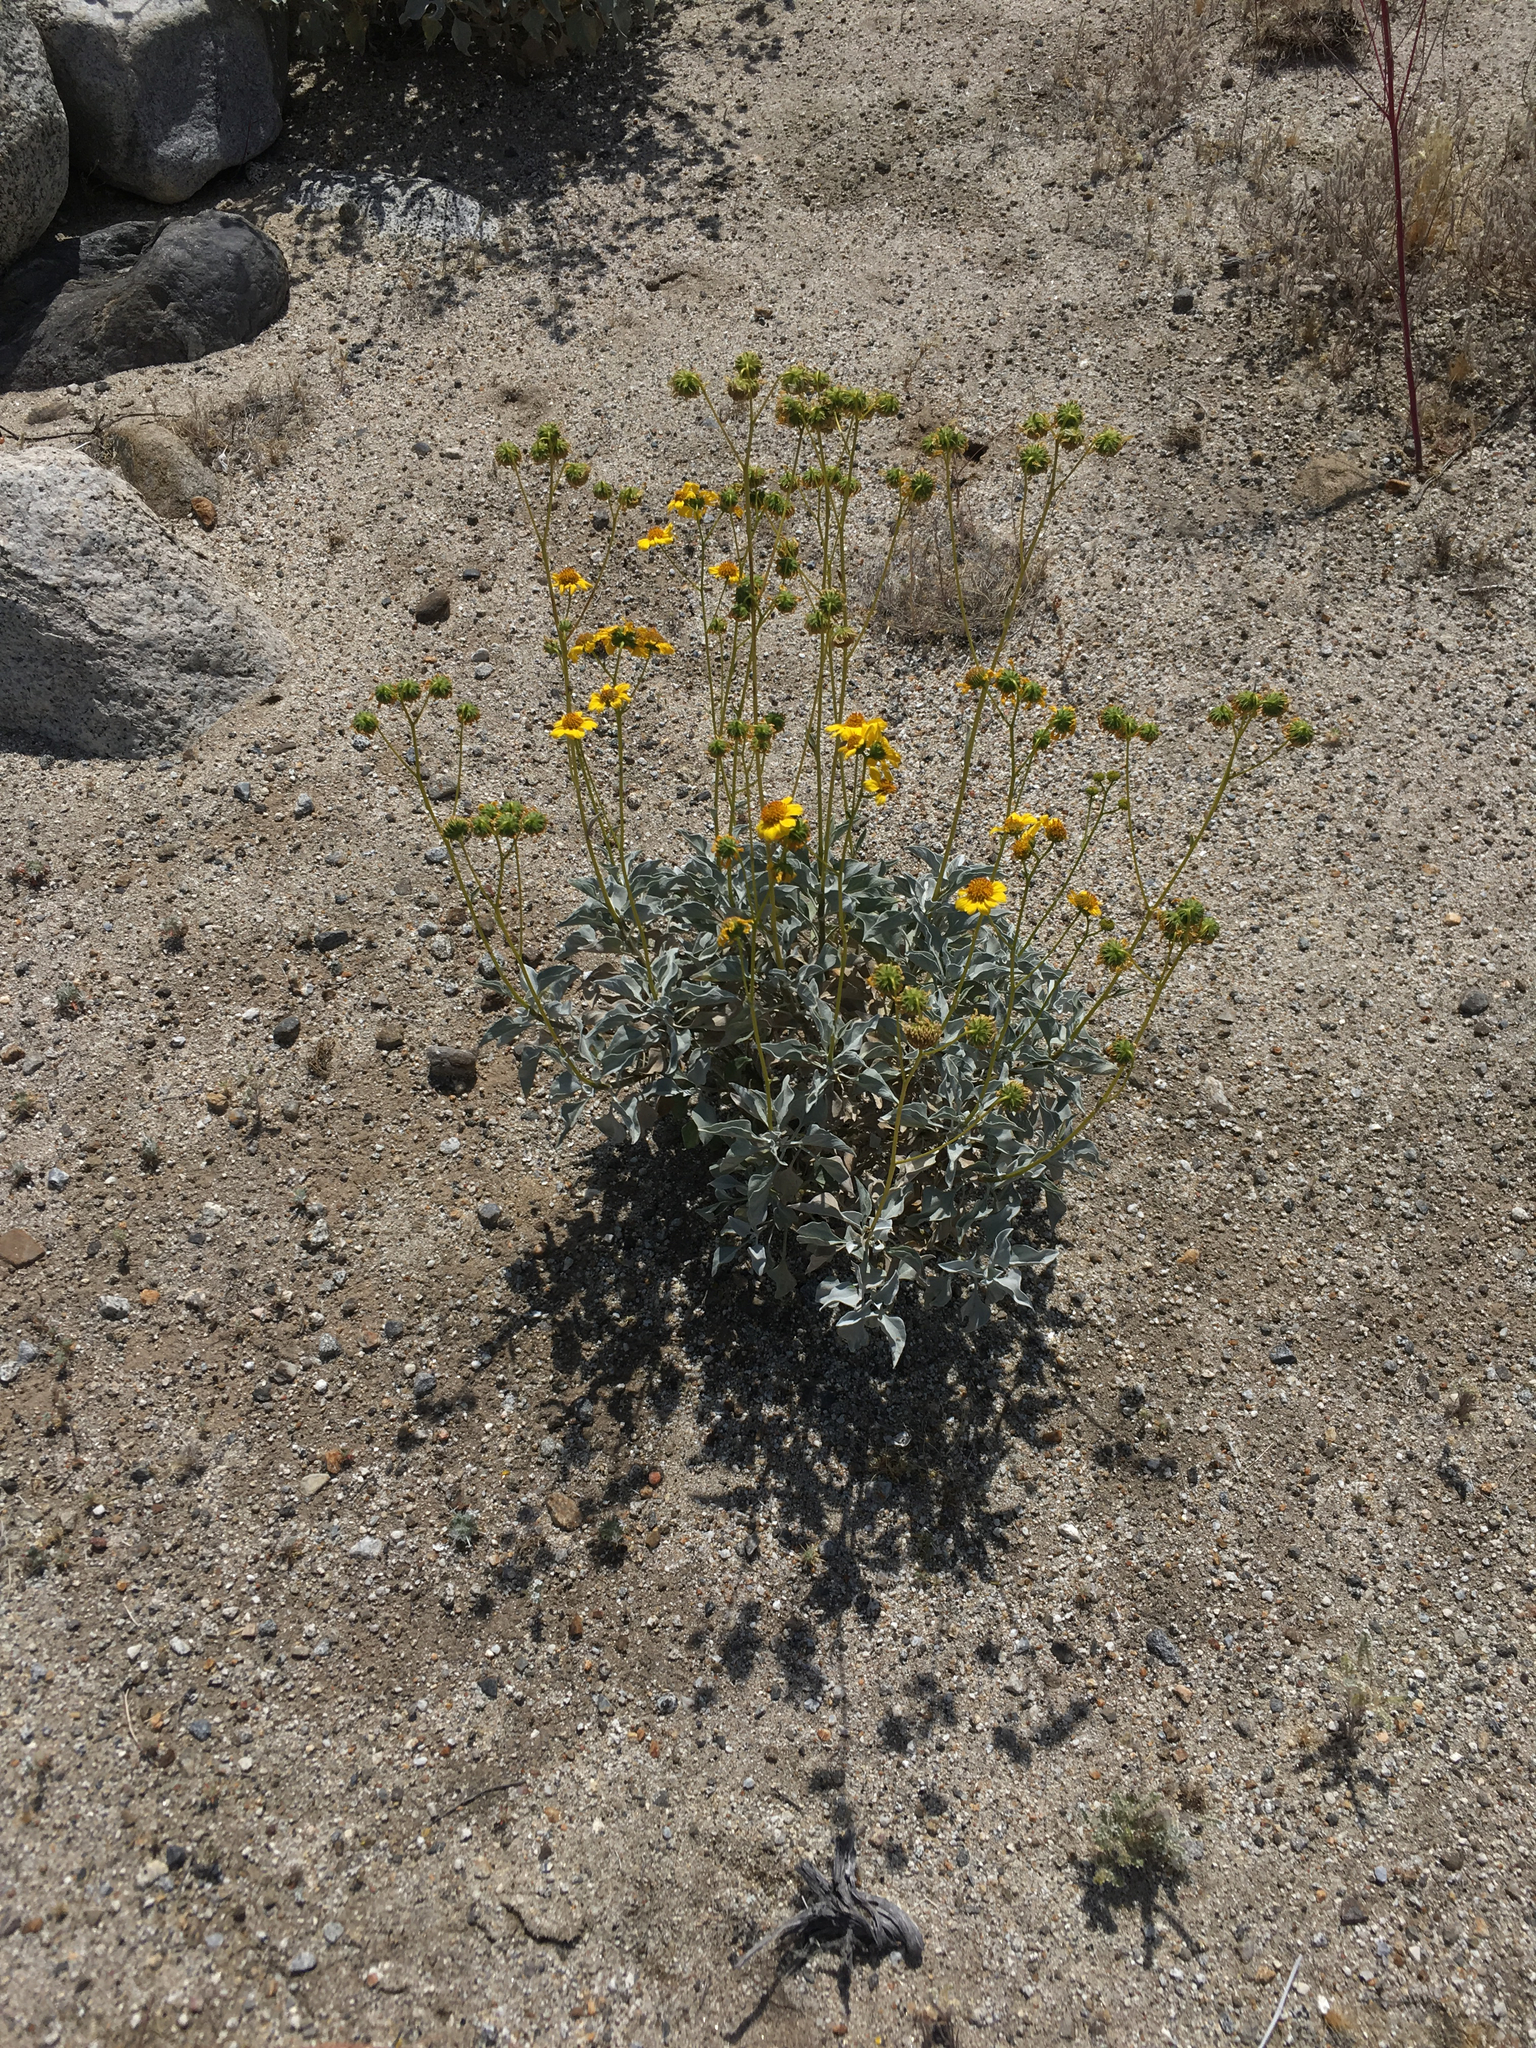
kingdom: Plantae
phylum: Tracheophyta
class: Magnoliopsida
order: Asterales
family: Asteraceae
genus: Encelia
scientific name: Encelia farinosa
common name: Brittlebush
